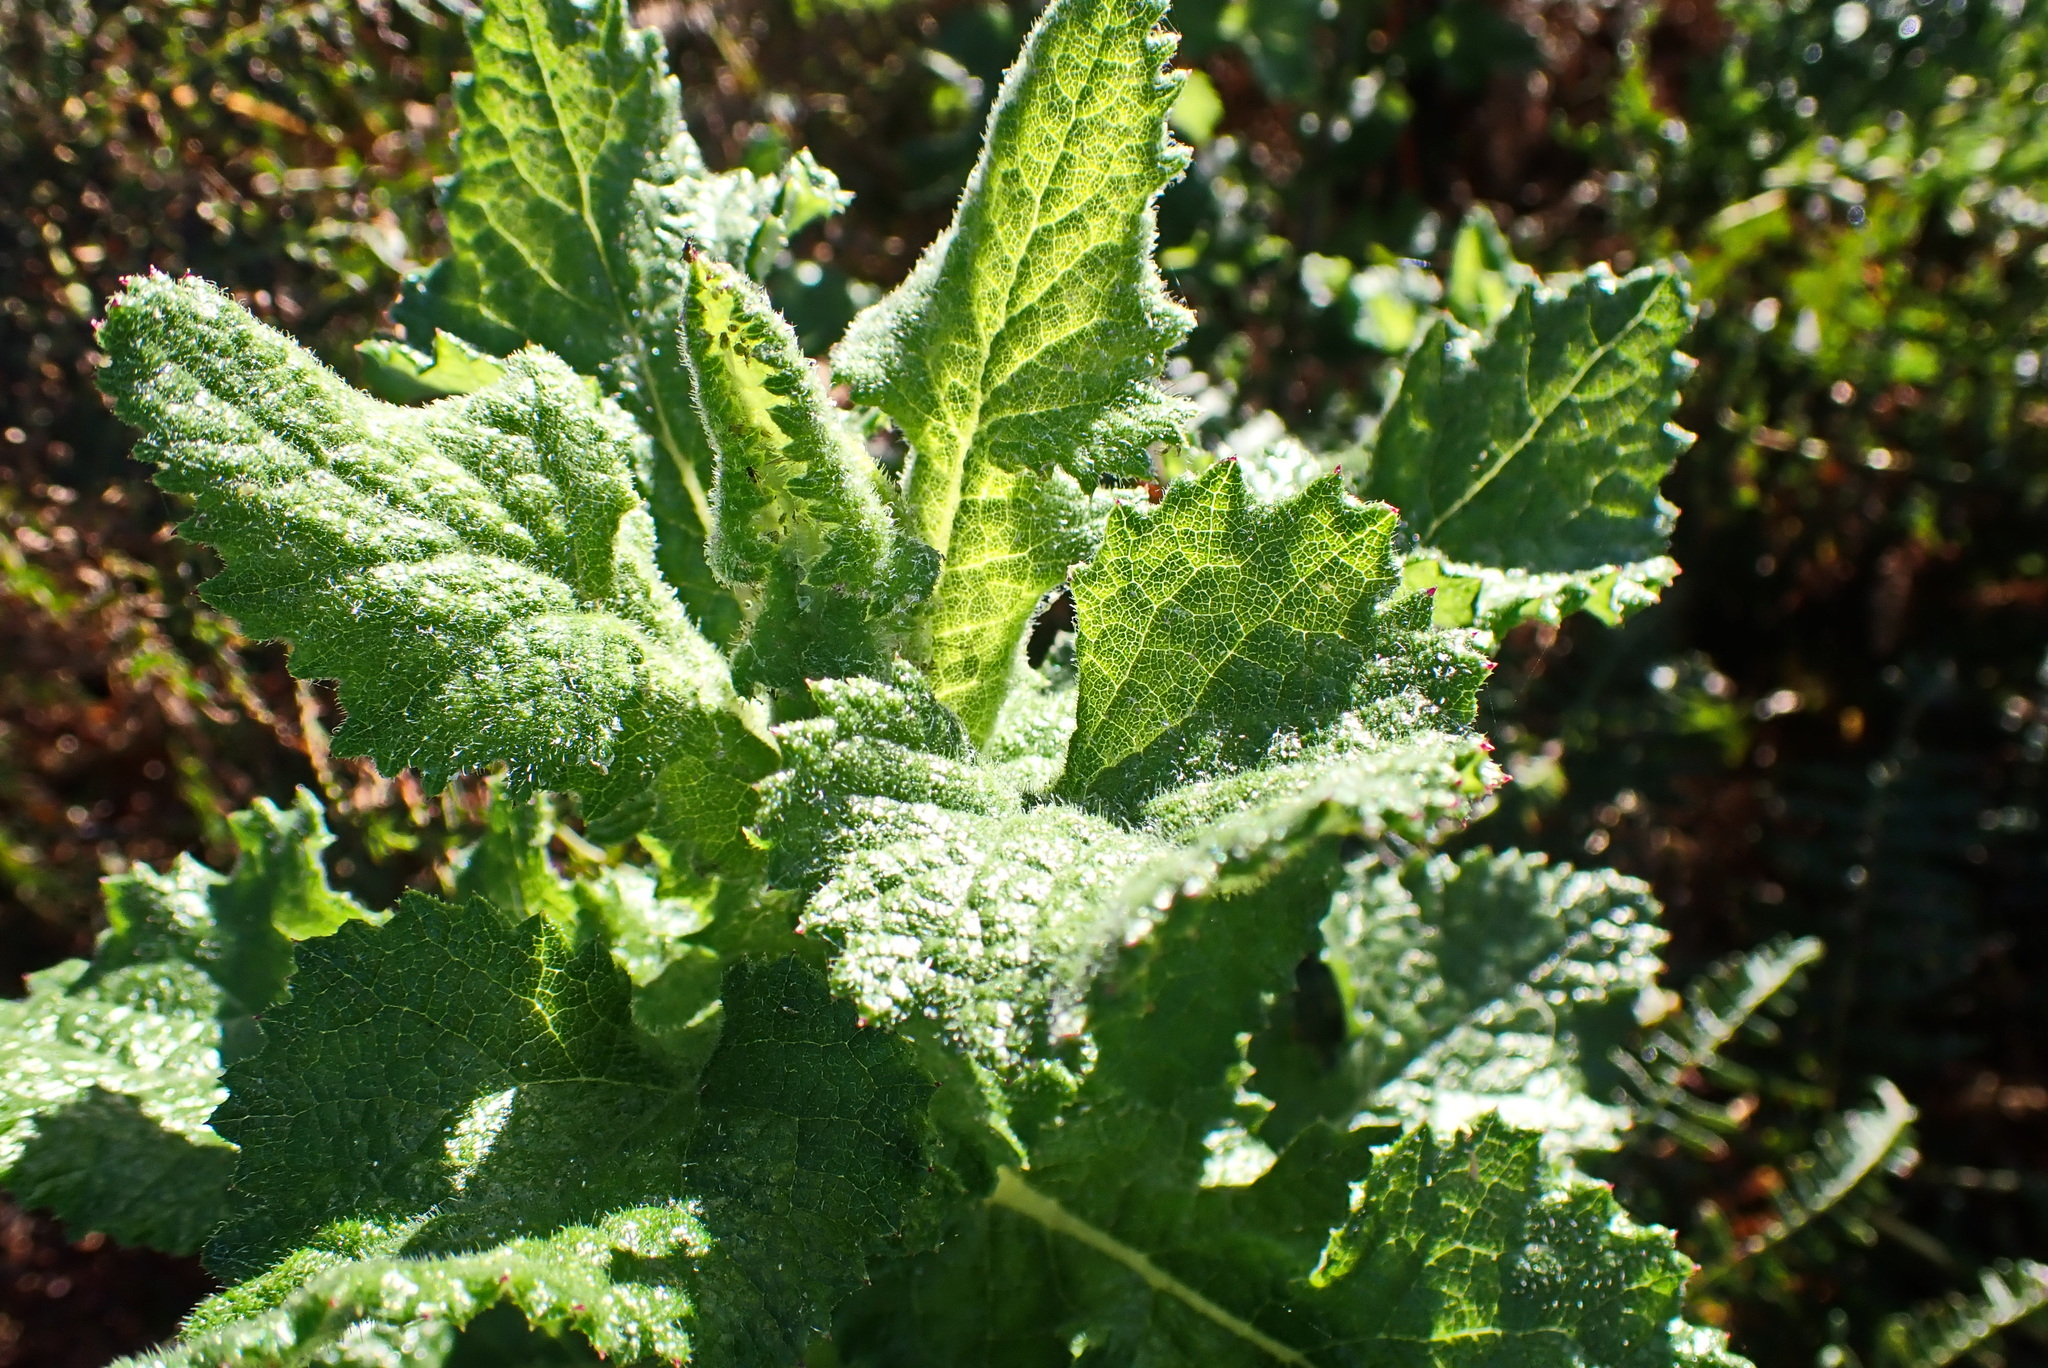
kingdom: Plantae
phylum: Tracheophyta
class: Magnoliopsida
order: Asterales
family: Asteraceae
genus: Senecio
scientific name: Senecio rigidus
